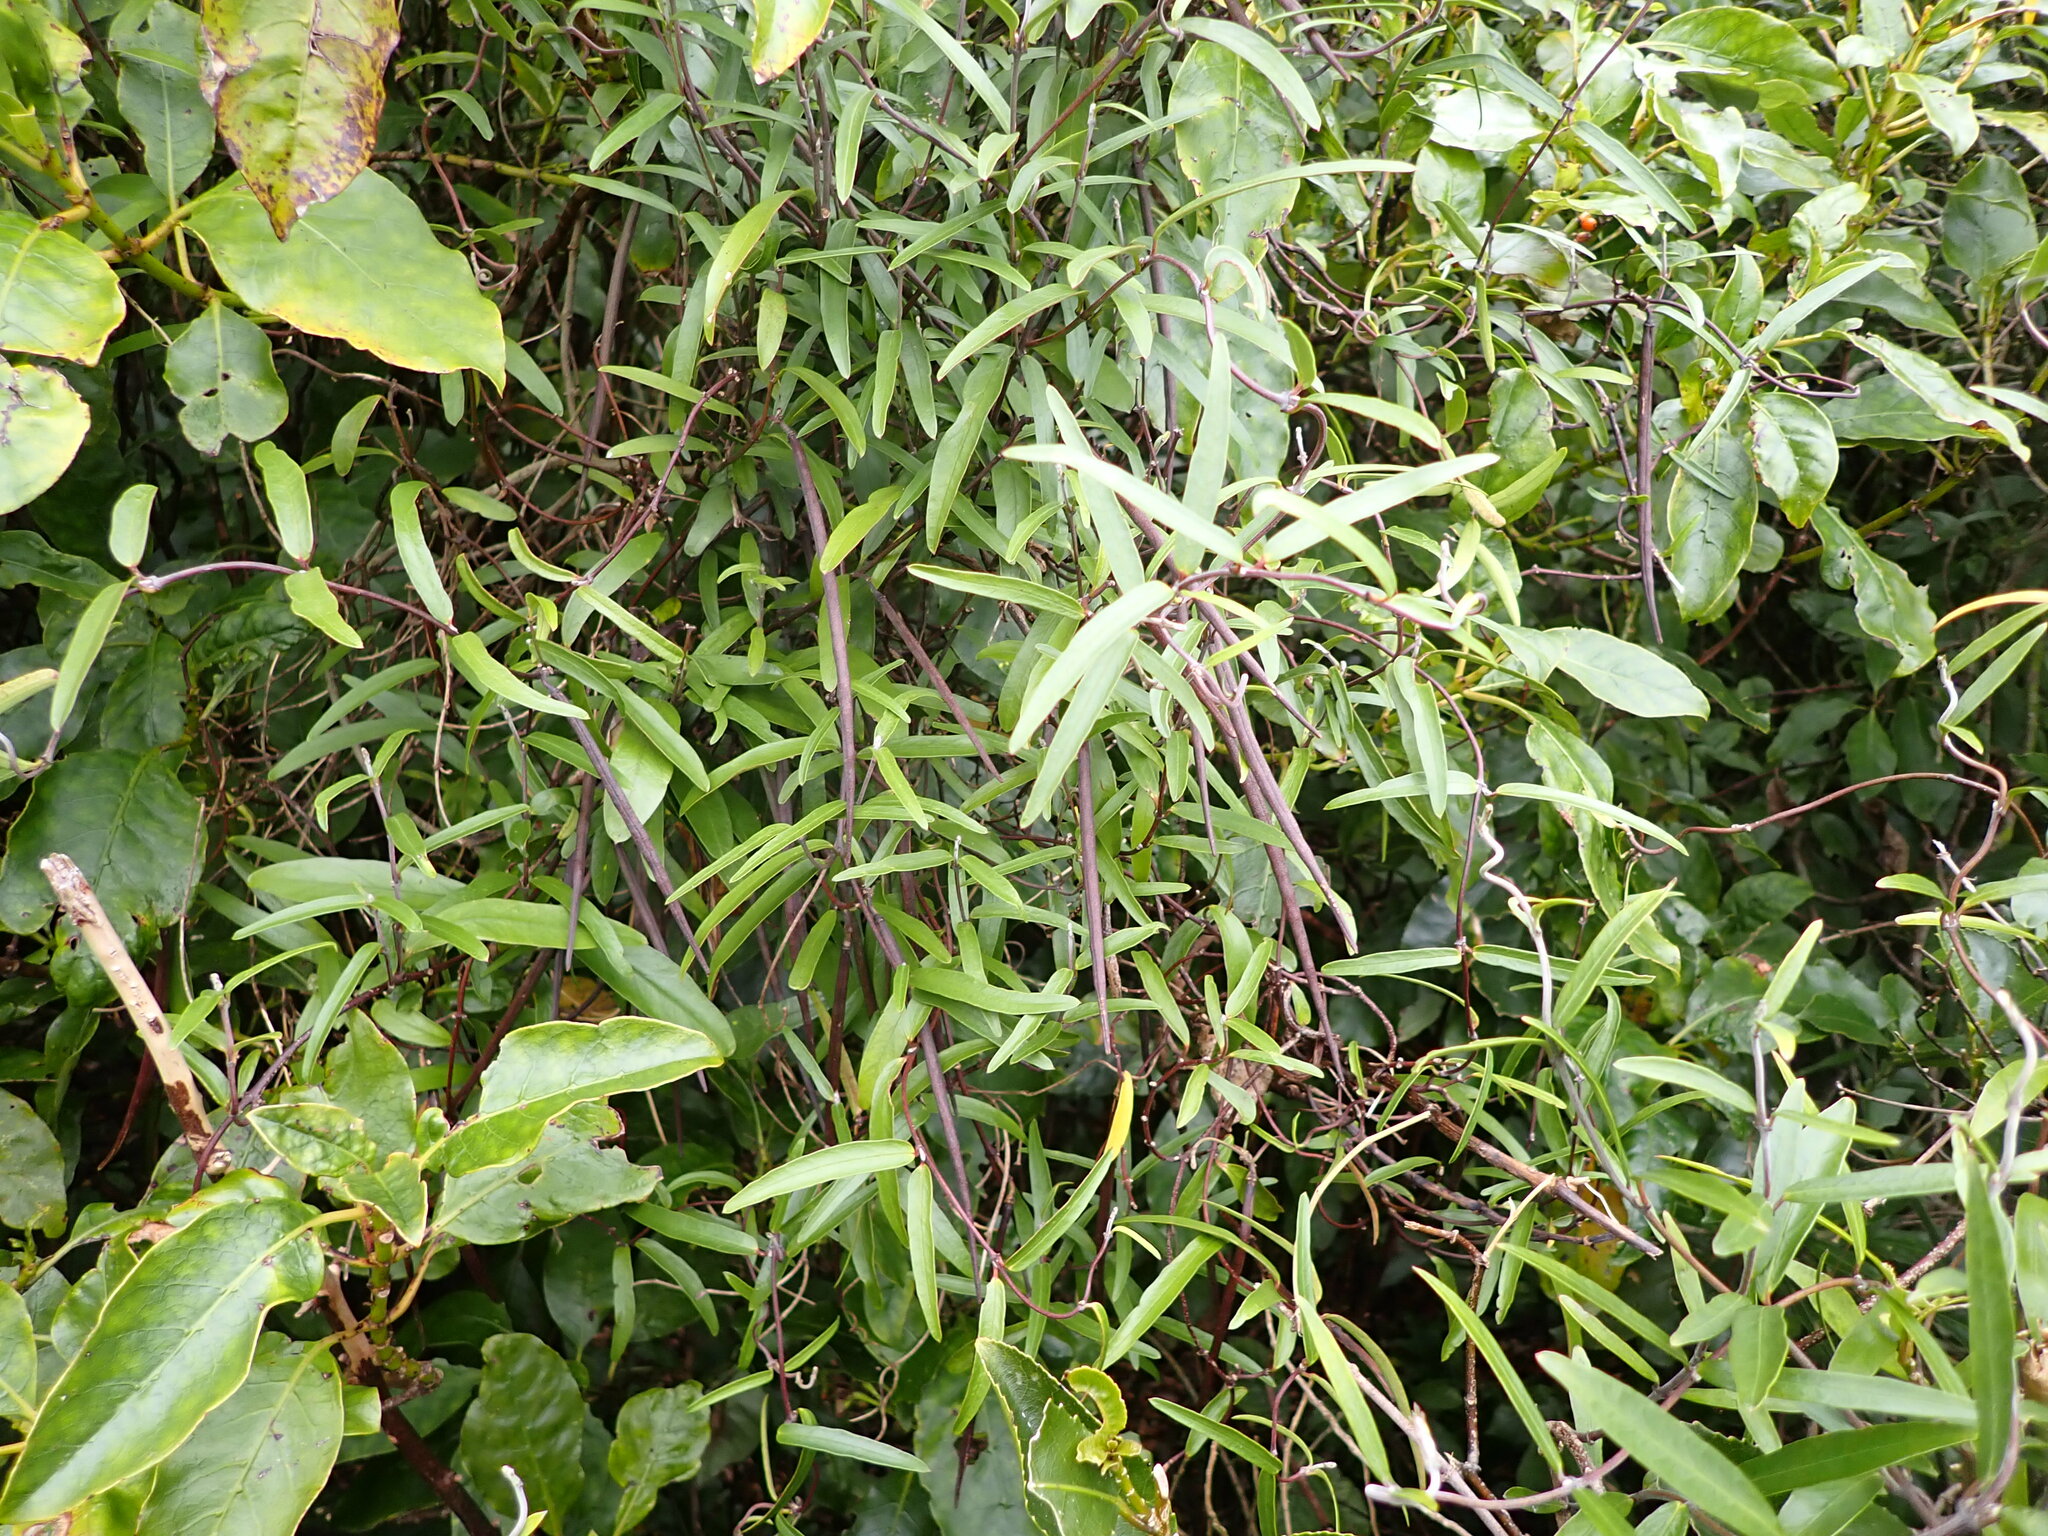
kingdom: Plantae
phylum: Tracheophyta
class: Magnoliopsida
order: Gentianales
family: Apocynaceae
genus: Parsonsia
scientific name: Parsonsia capsularis
